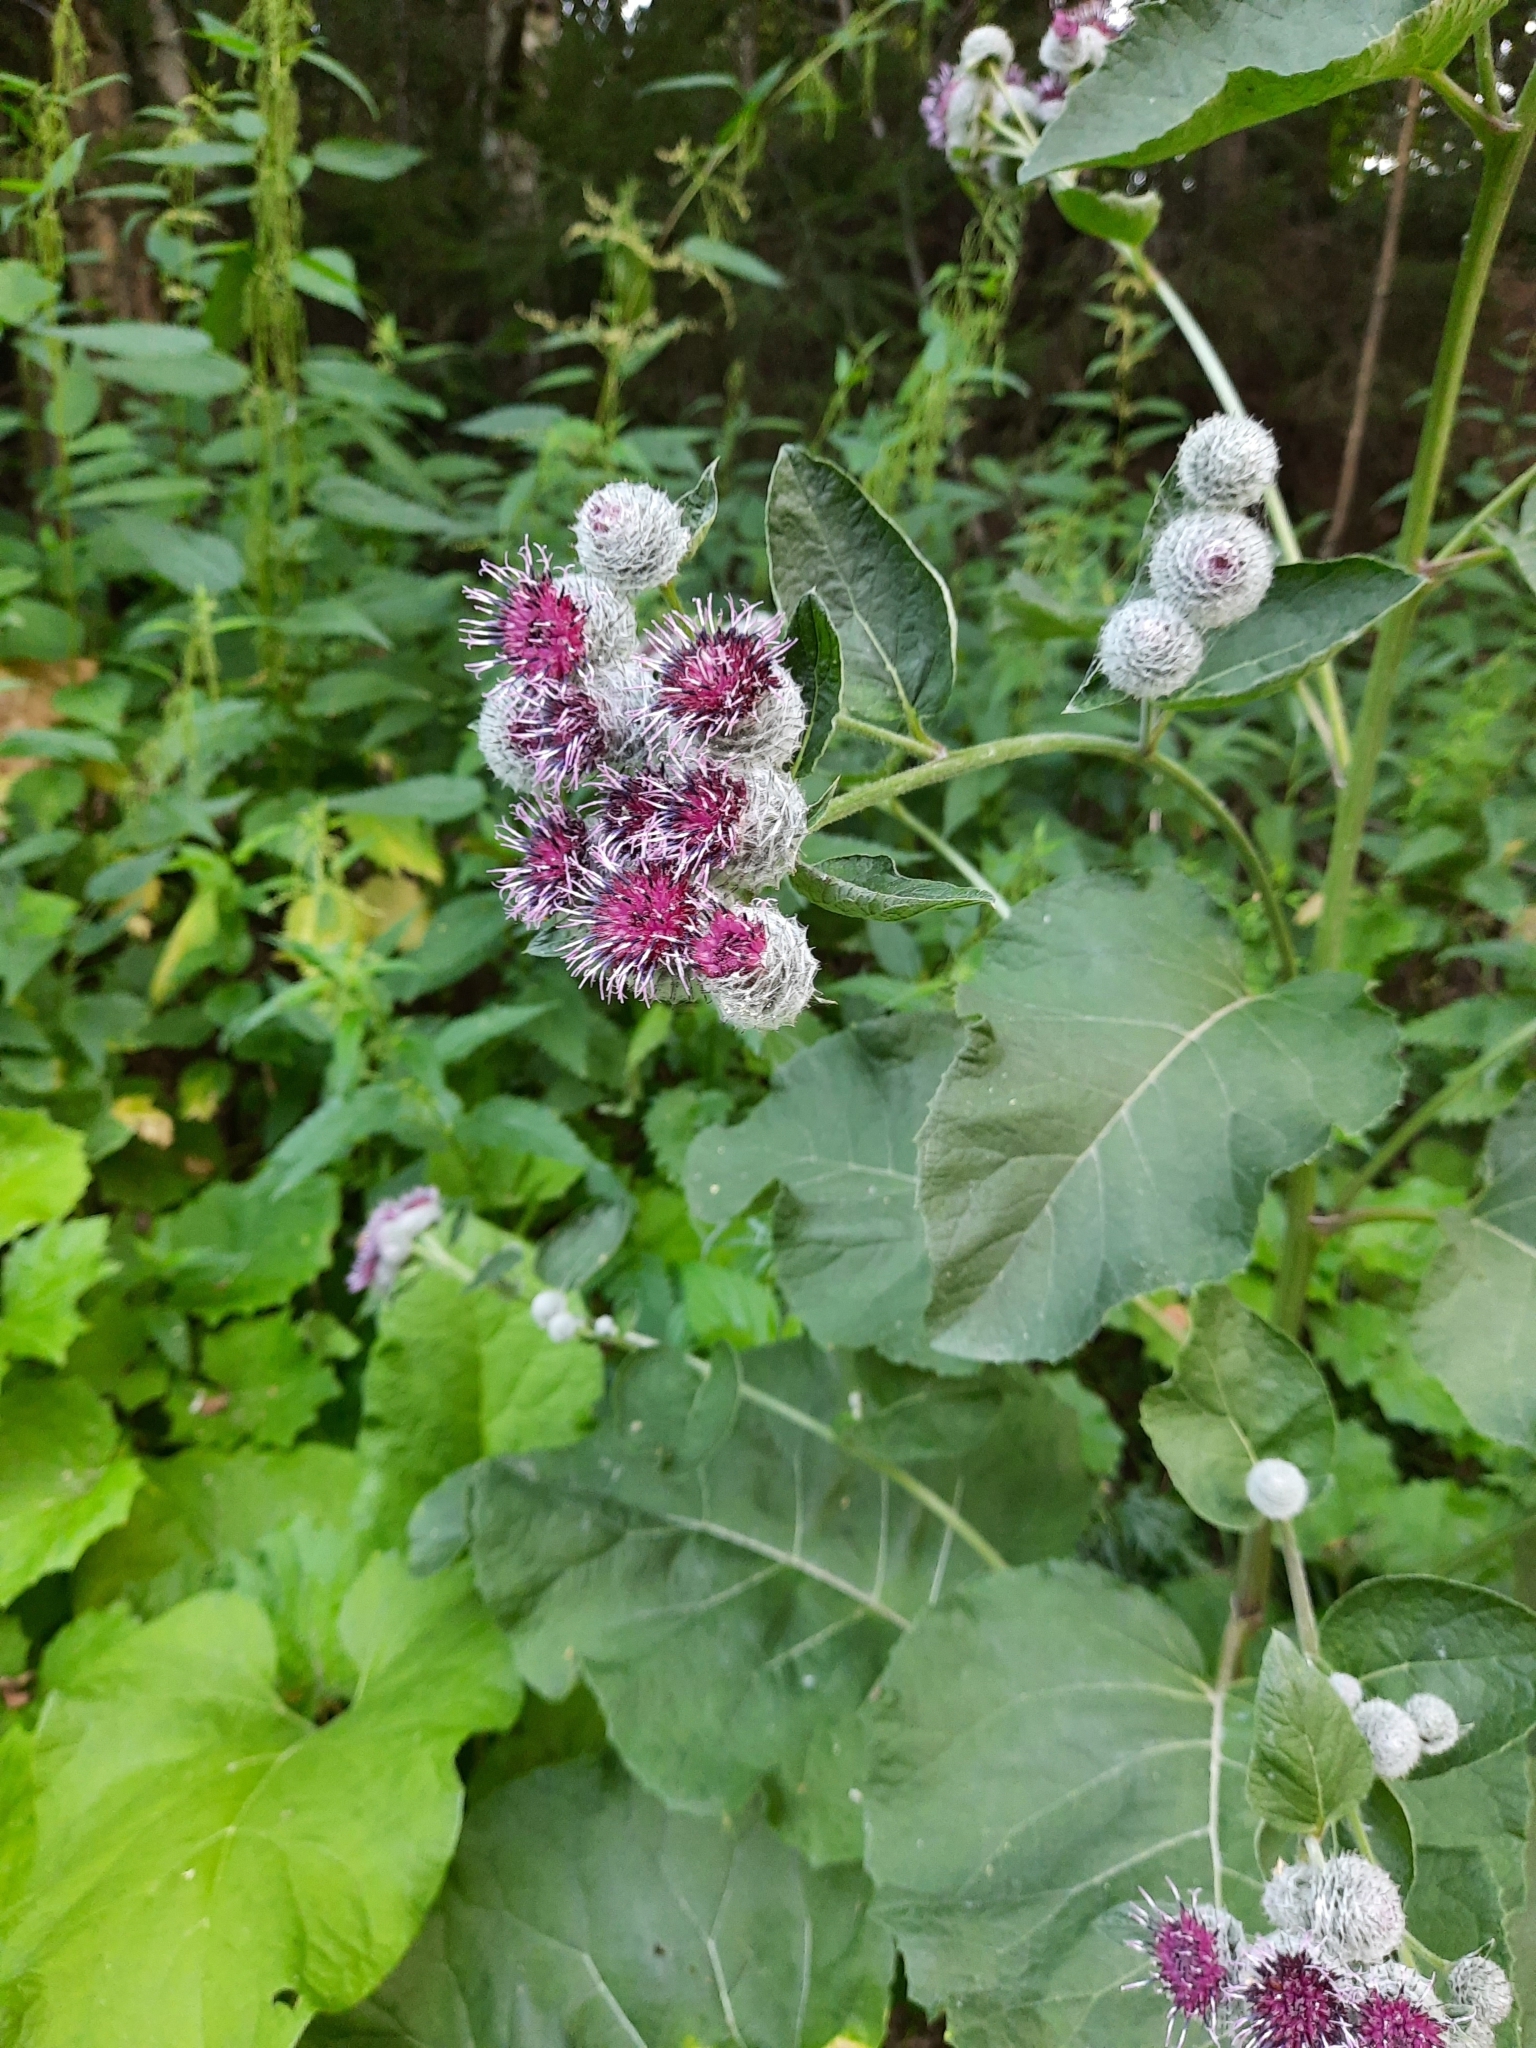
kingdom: Plantae
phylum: Tracheophyta
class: Magnoliopsida
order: Asterales
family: Asteraceae
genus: Arctium
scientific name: Arctium tomentosum
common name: Woolly burdock
